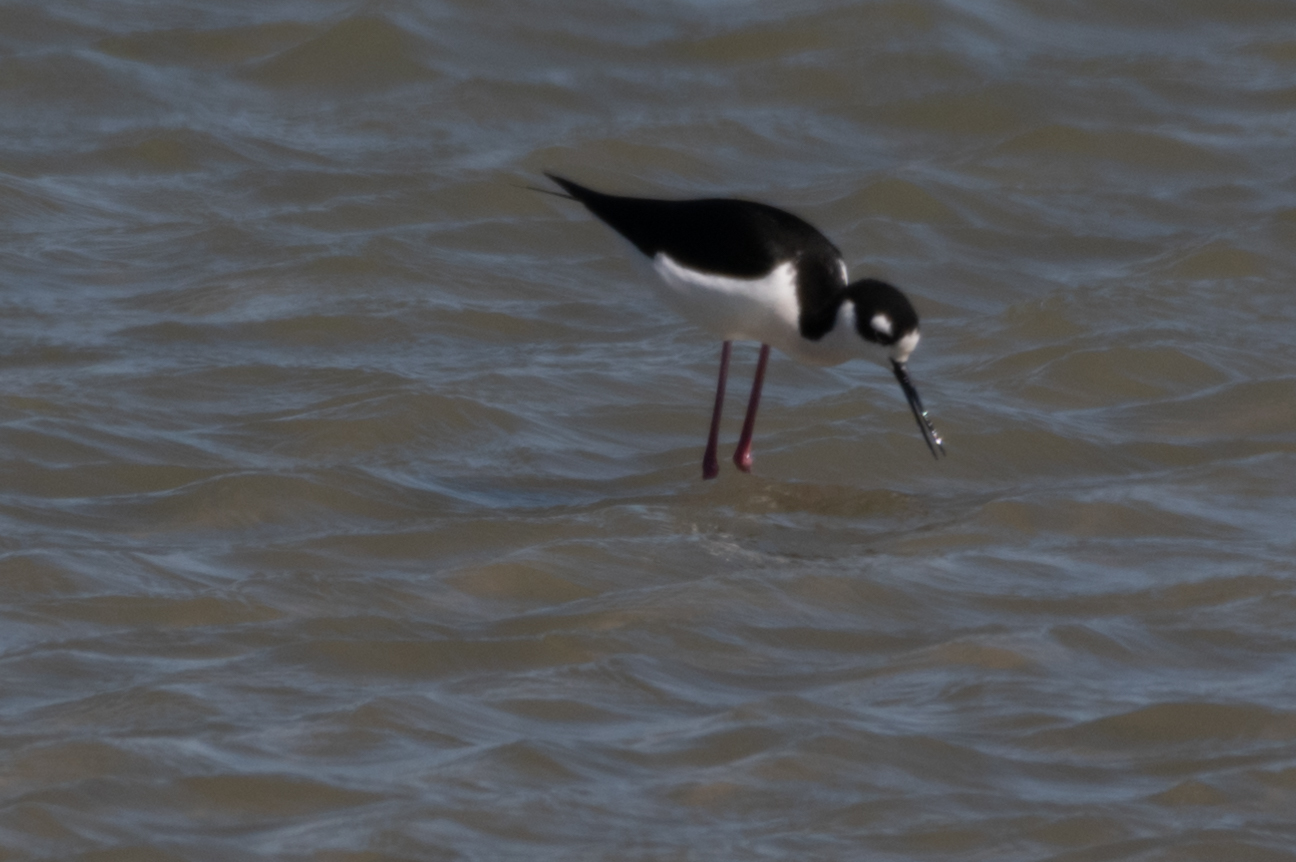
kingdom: Animalia
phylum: Chordata
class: Aves
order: Charadriiformes
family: Recurvirostridae
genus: Himantopus
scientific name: Himantopus mexicanus
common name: Black-necked stilt
